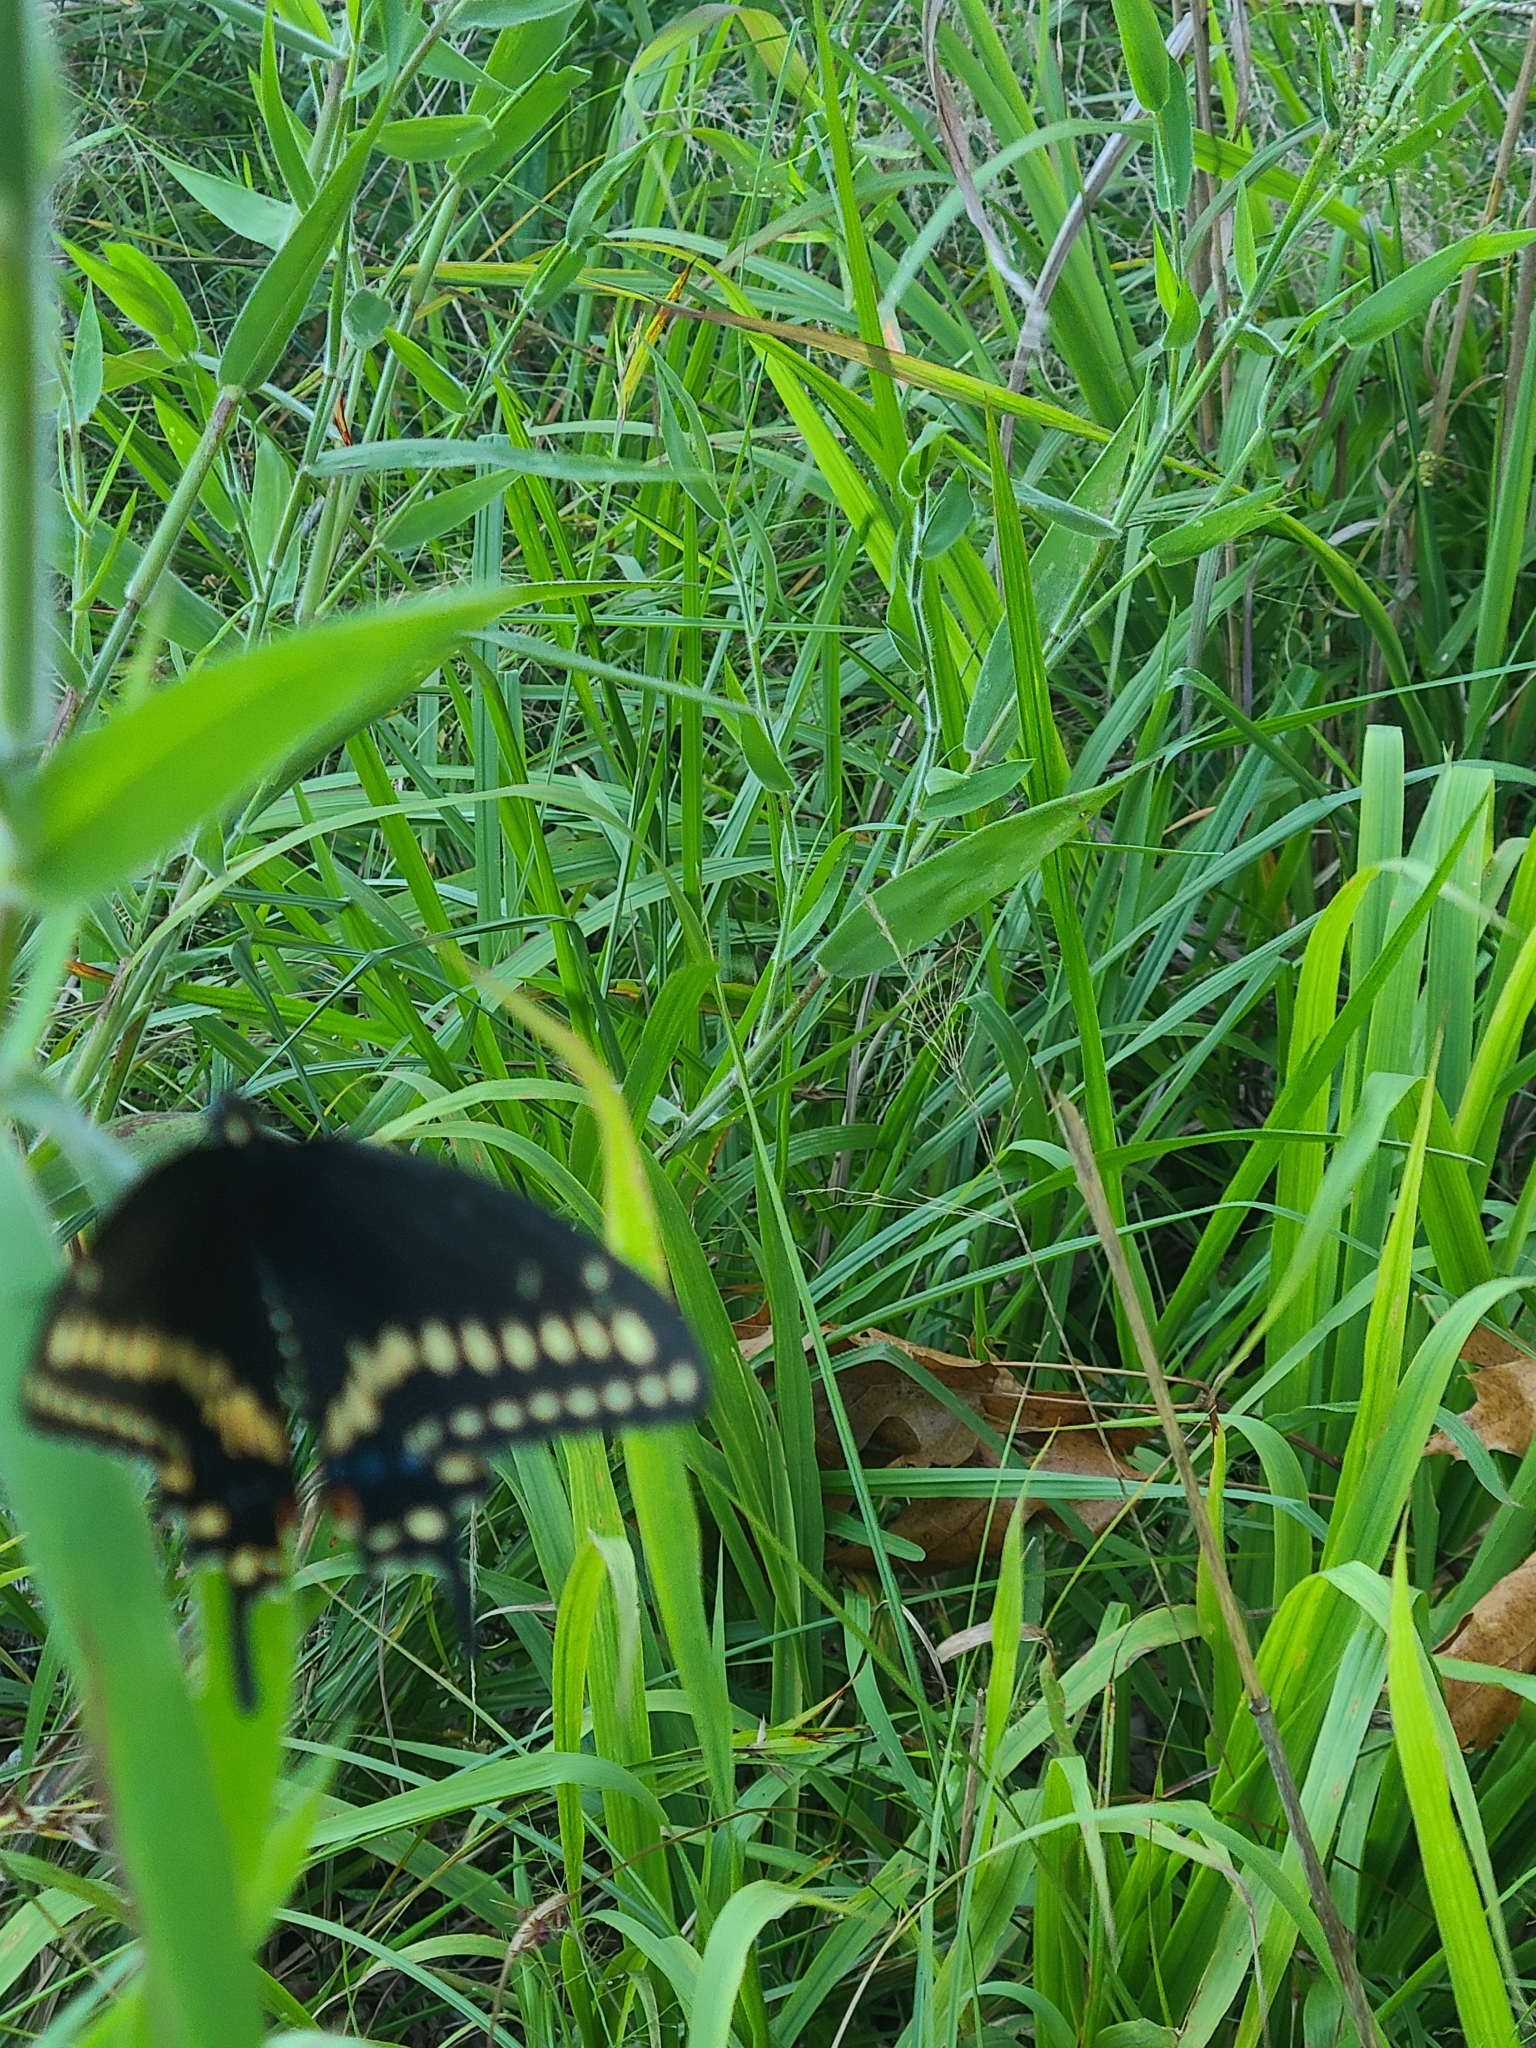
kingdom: Animalia
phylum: Arthropoda
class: Insecta
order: Lepidoptera
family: Papilionidae
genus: Papilio
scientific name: Papilio polyxenes
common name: Black swallowtail
